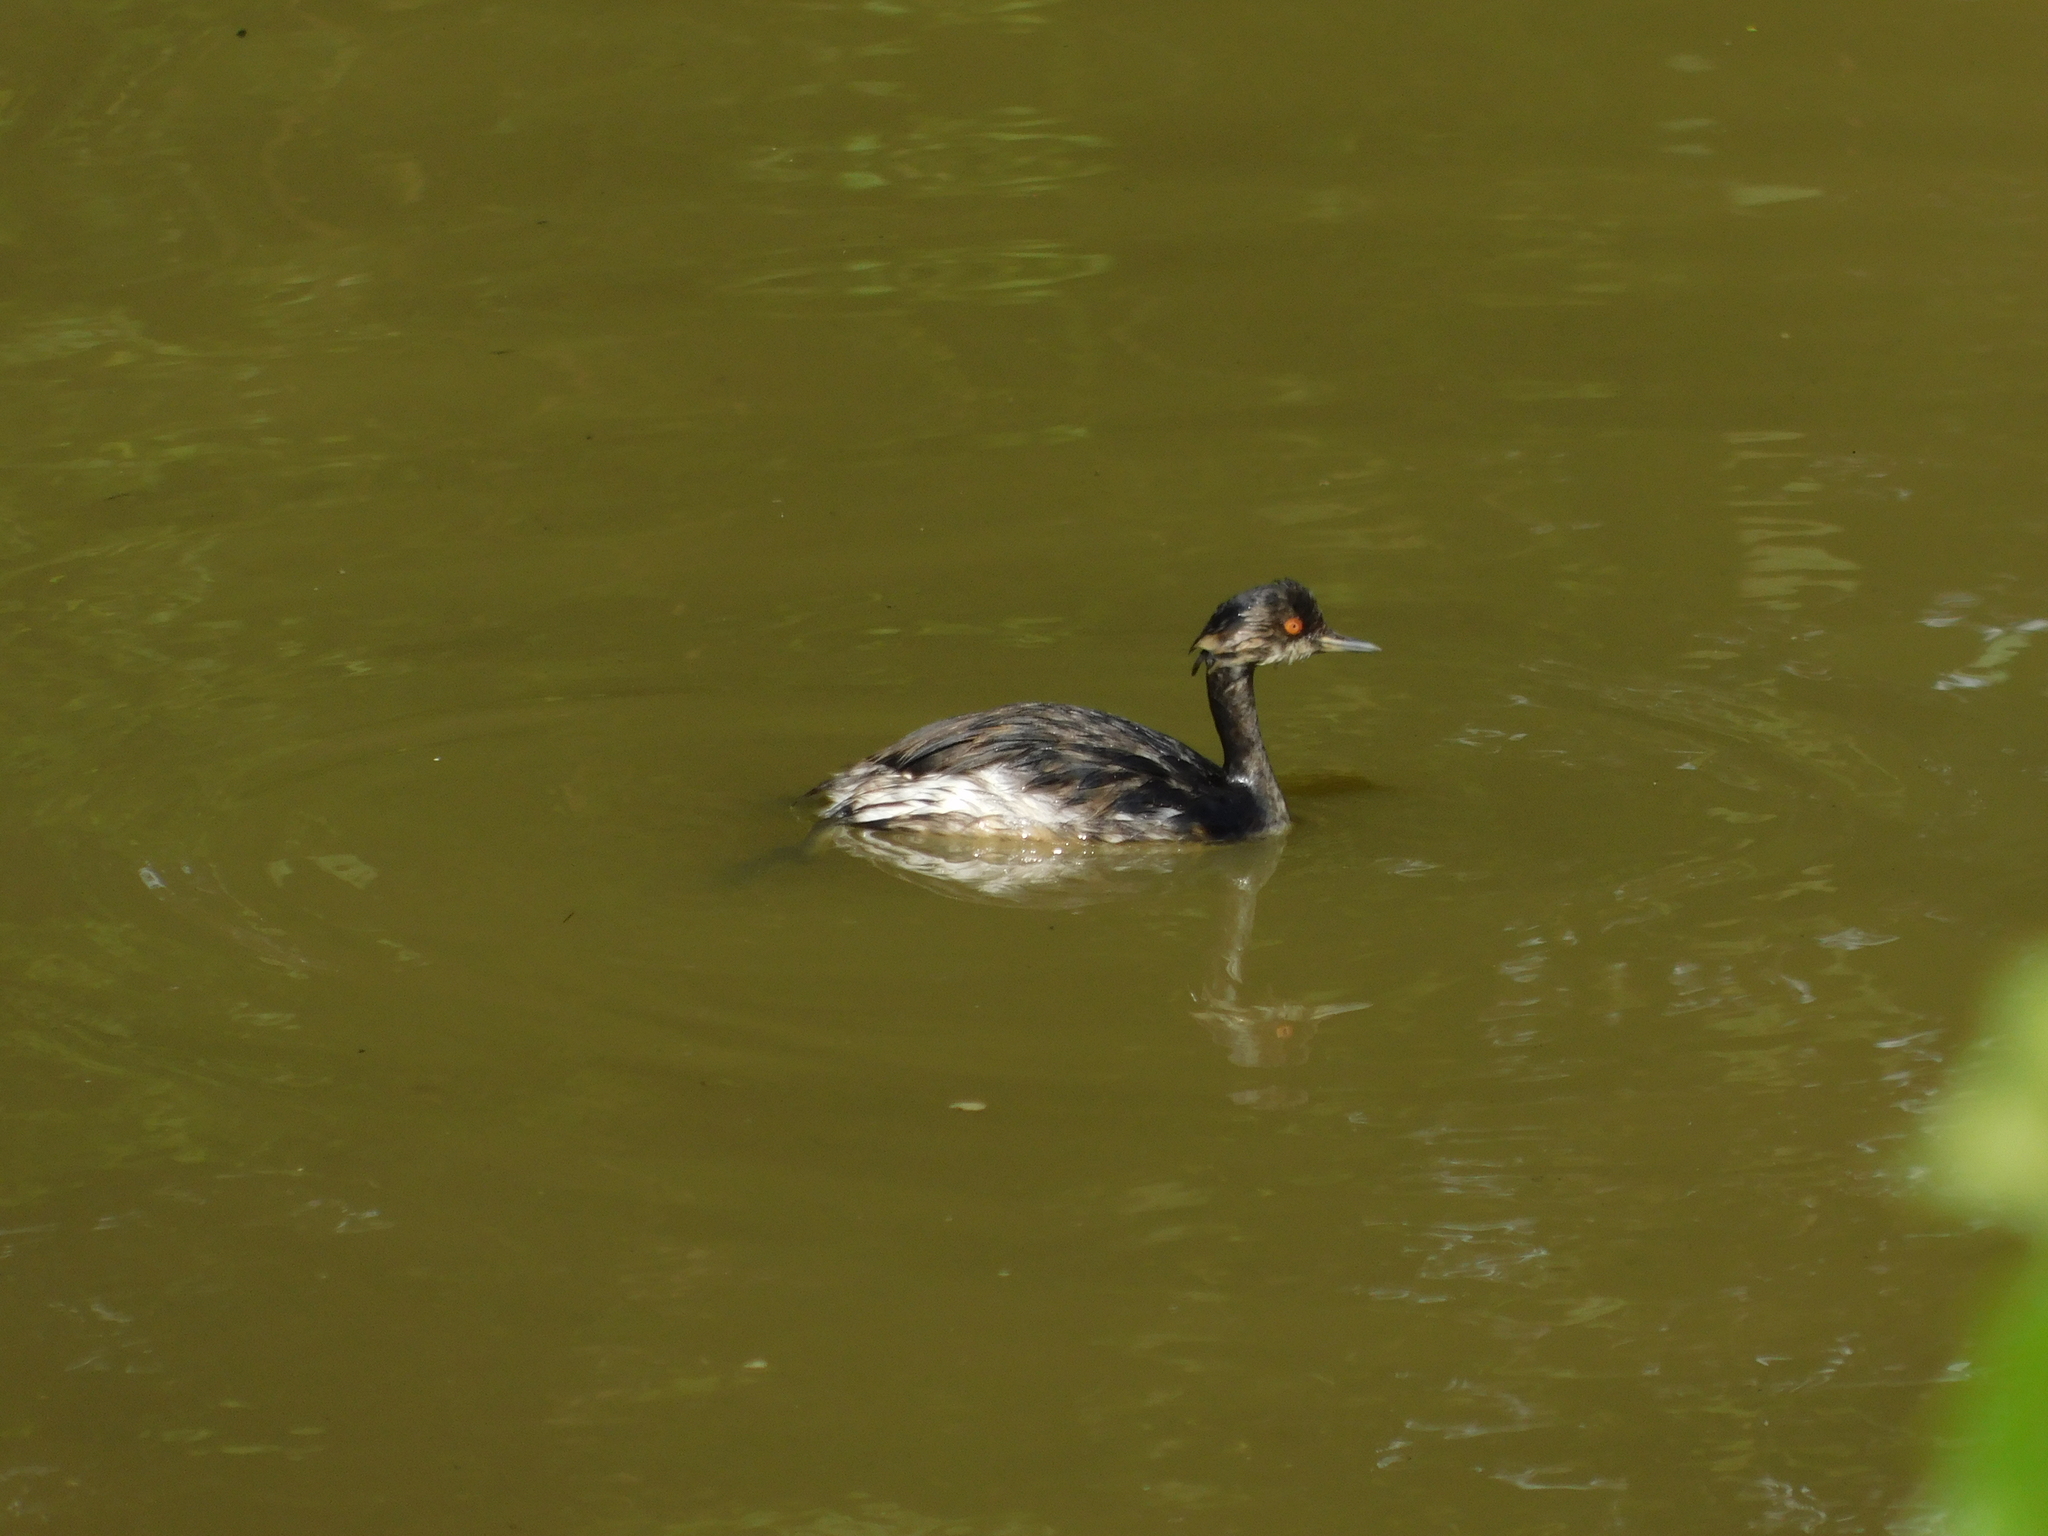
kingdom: Animalia
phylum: Chordata
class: Aves
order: Podicipediformes
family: Podicipedidae
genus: Podiceps
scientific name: Podiceps nigricollis
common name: Black-necked grebe
